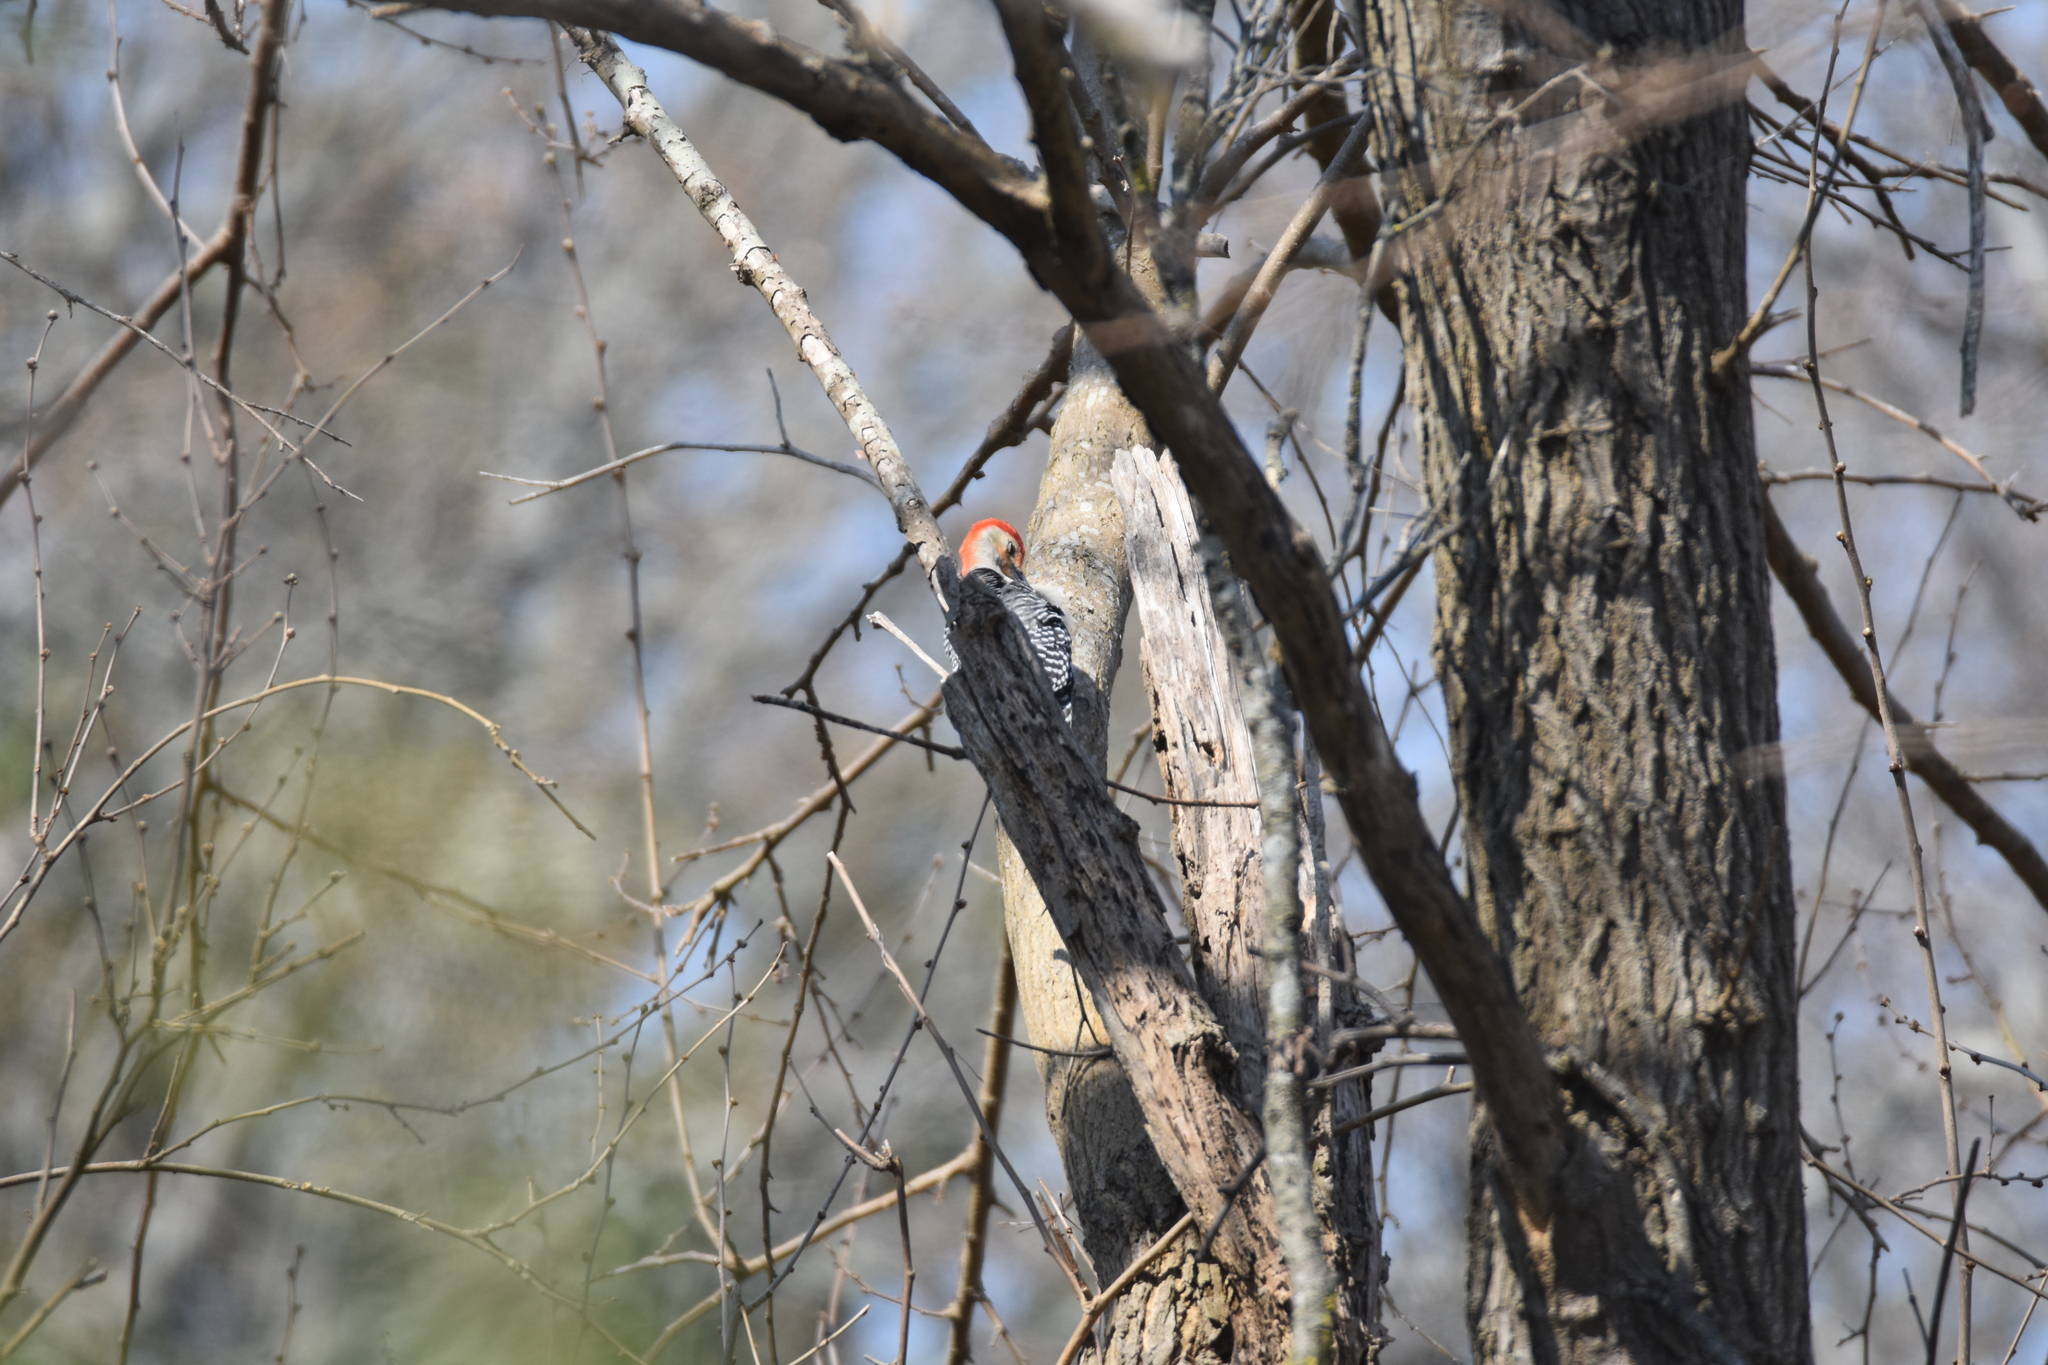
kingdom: Animalia
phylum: Chordata
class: Aves
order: Piciformes
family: Picidae
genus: Melanerpes
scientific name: Melanerpes carolinus
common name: Red-bellied woodpecker
